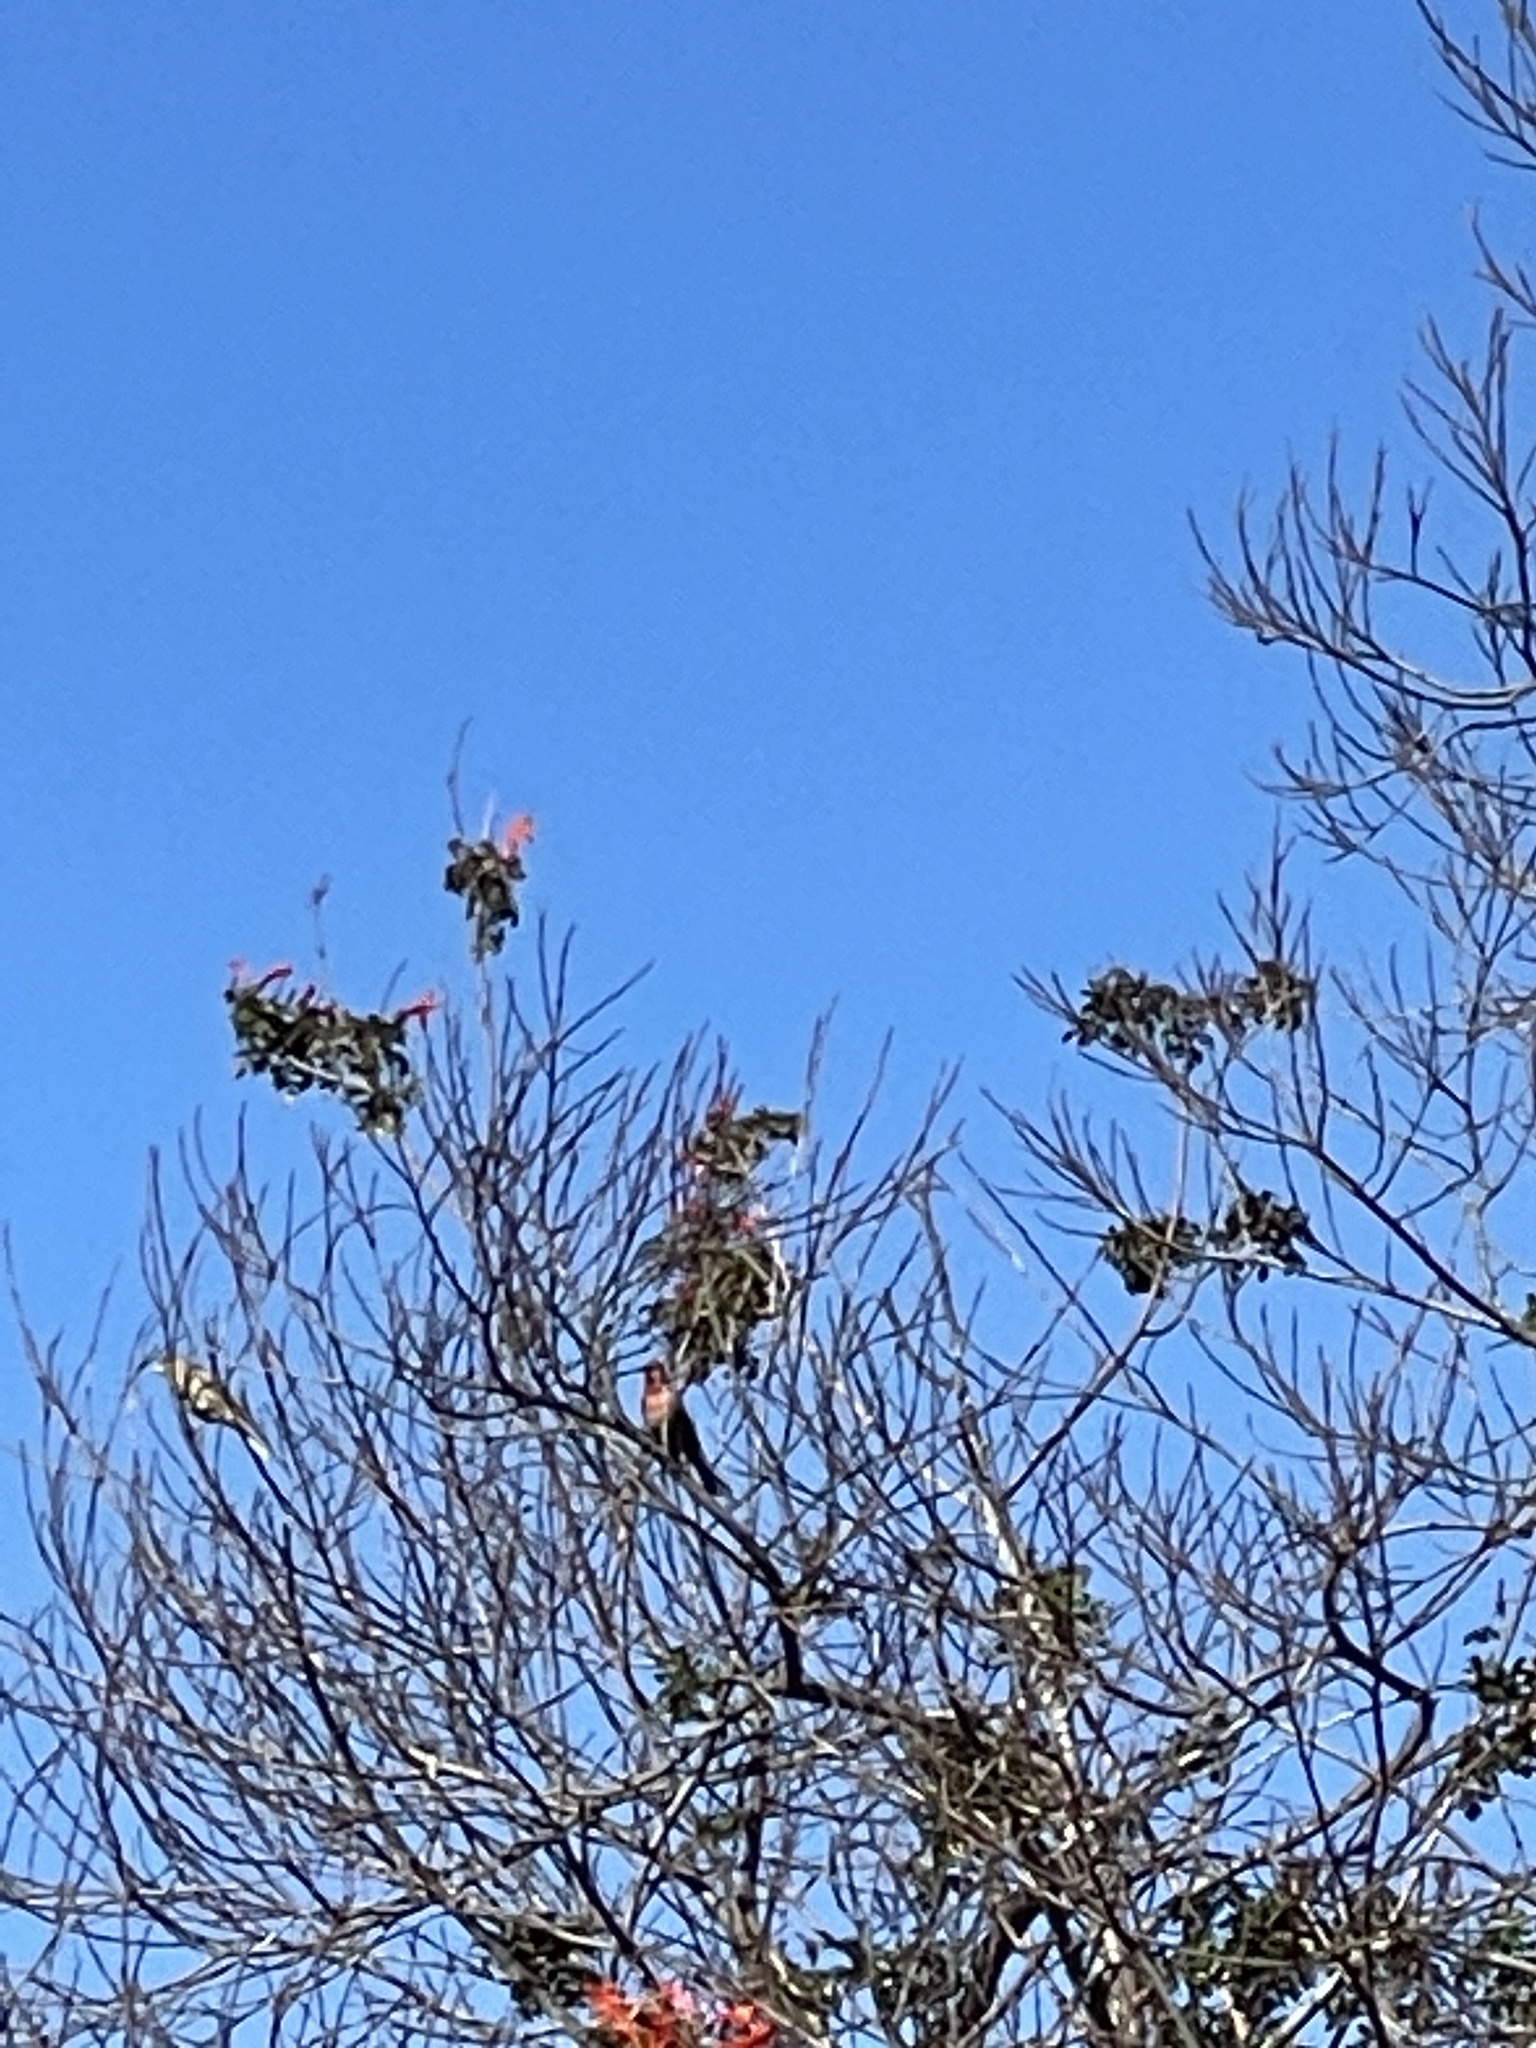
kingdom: Animalia
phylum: Chordata
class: Aves
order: Passeriformes
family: Fringillidae
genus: Haemorhous
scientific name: Haemorhous mexicanus
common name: House finch
